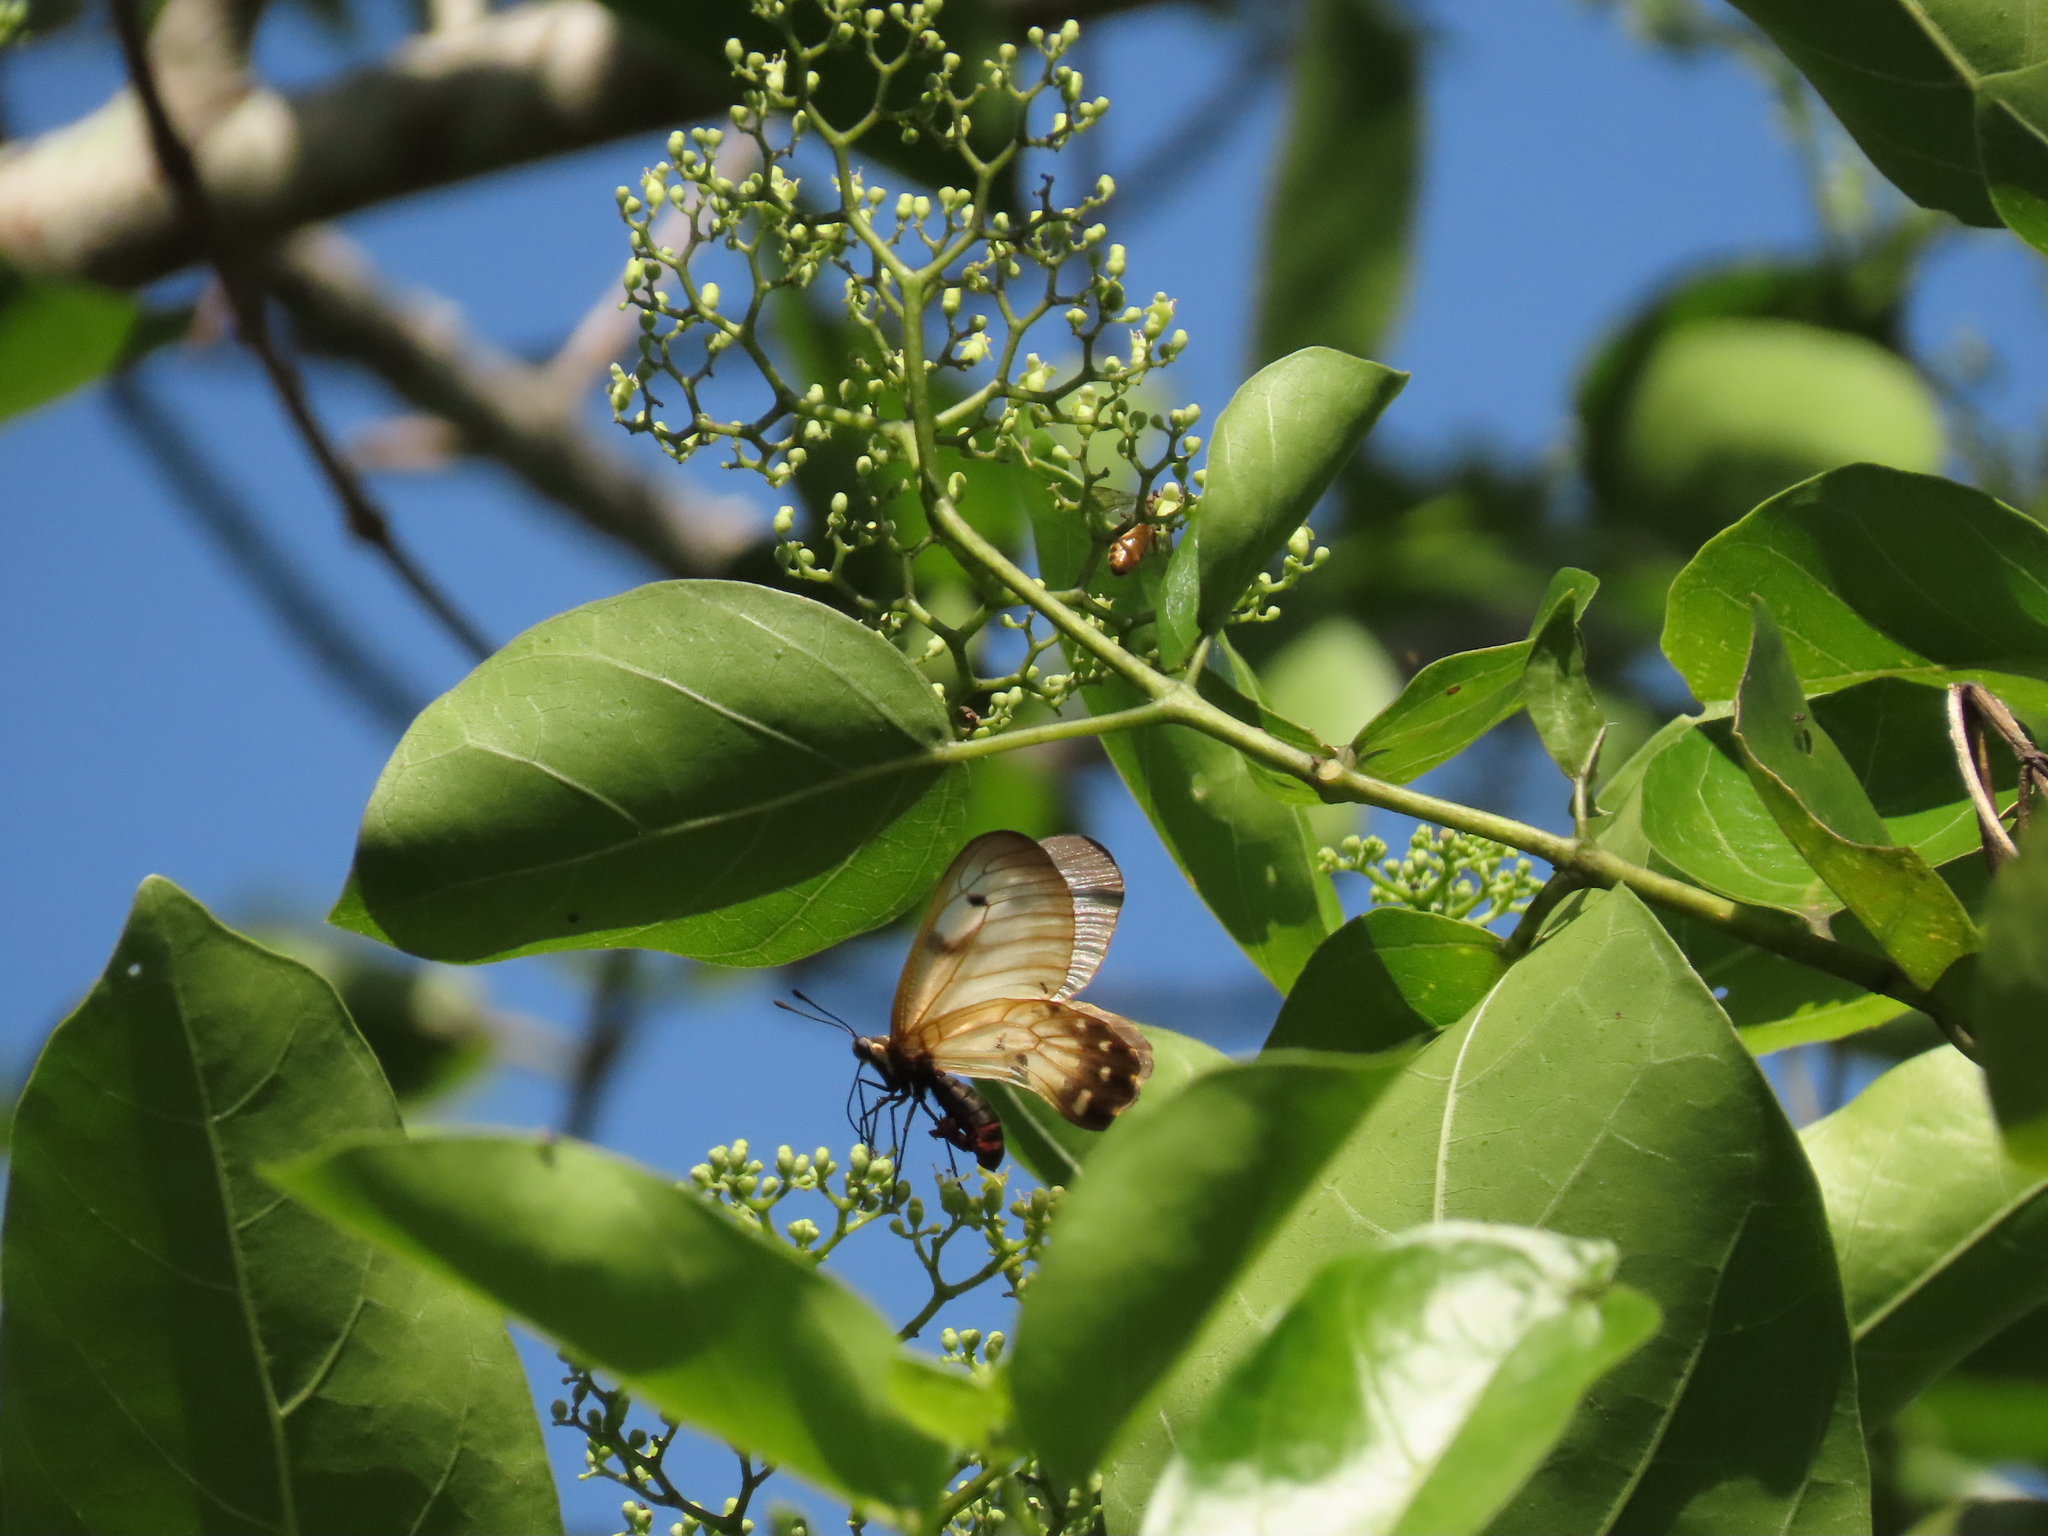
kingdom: Animalia
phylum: Arthropoda
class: Insecta
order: Lepidoptera
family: Papilionidae
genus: Cressida
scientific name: Cressida cressida
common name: Big greasy
